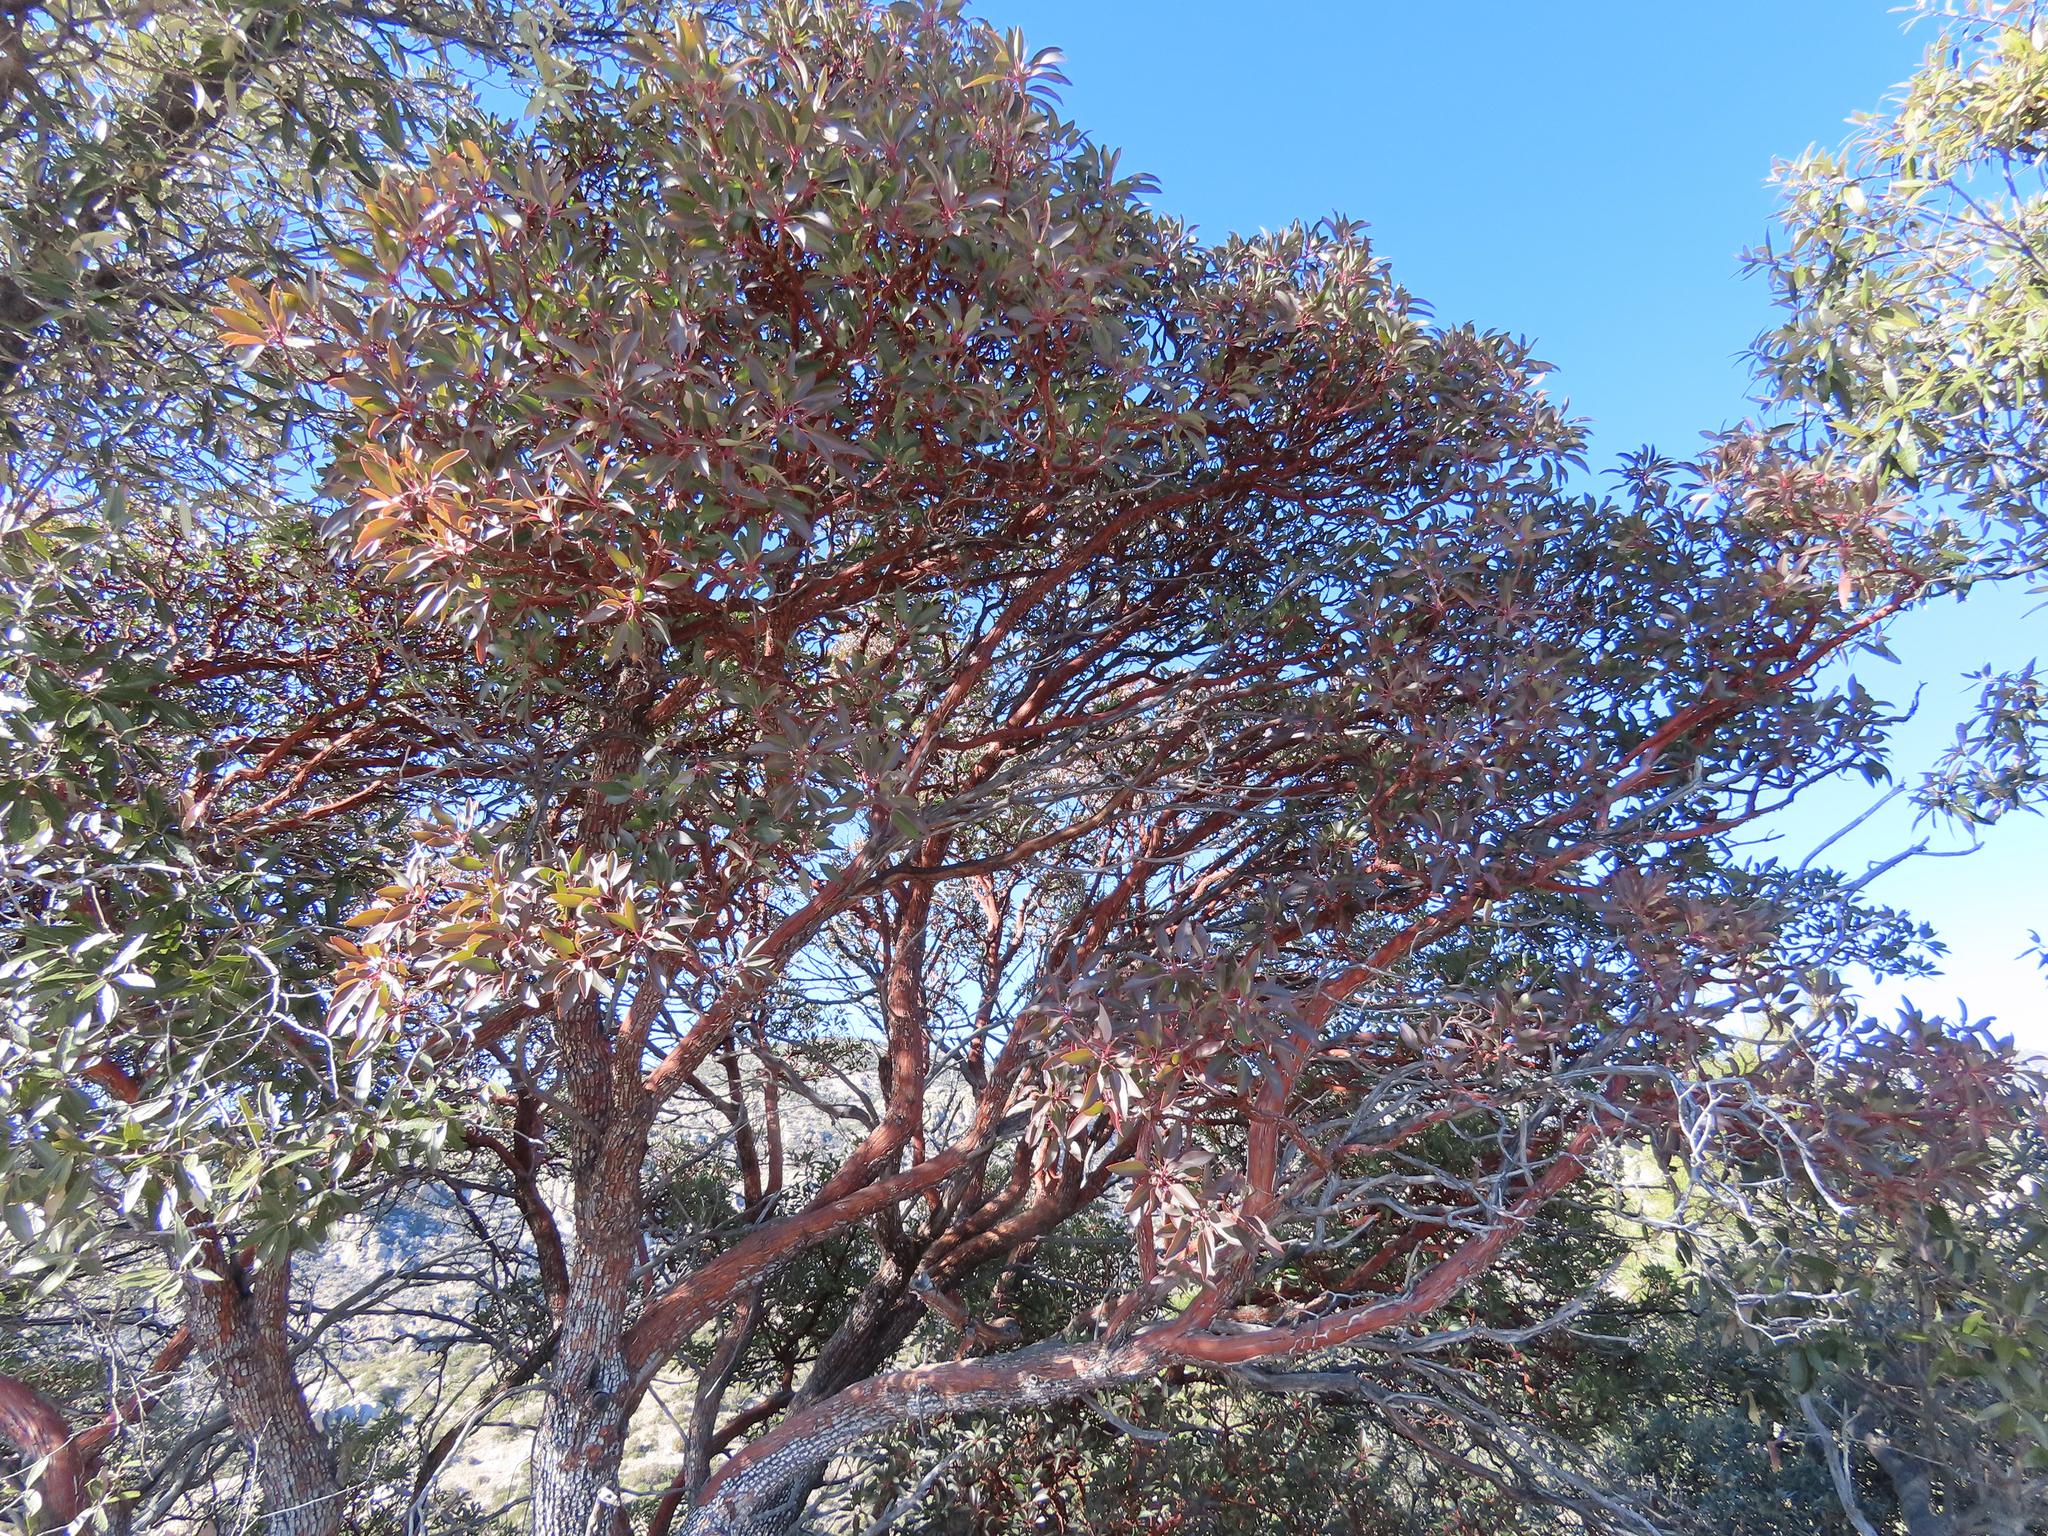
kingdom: Plantae
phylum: Tracheophyta
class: Magnoliopsida
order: Ericales
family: Ericaceae
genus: Arbutus
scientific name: Arbutus arizonica
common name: Arizona madrone
